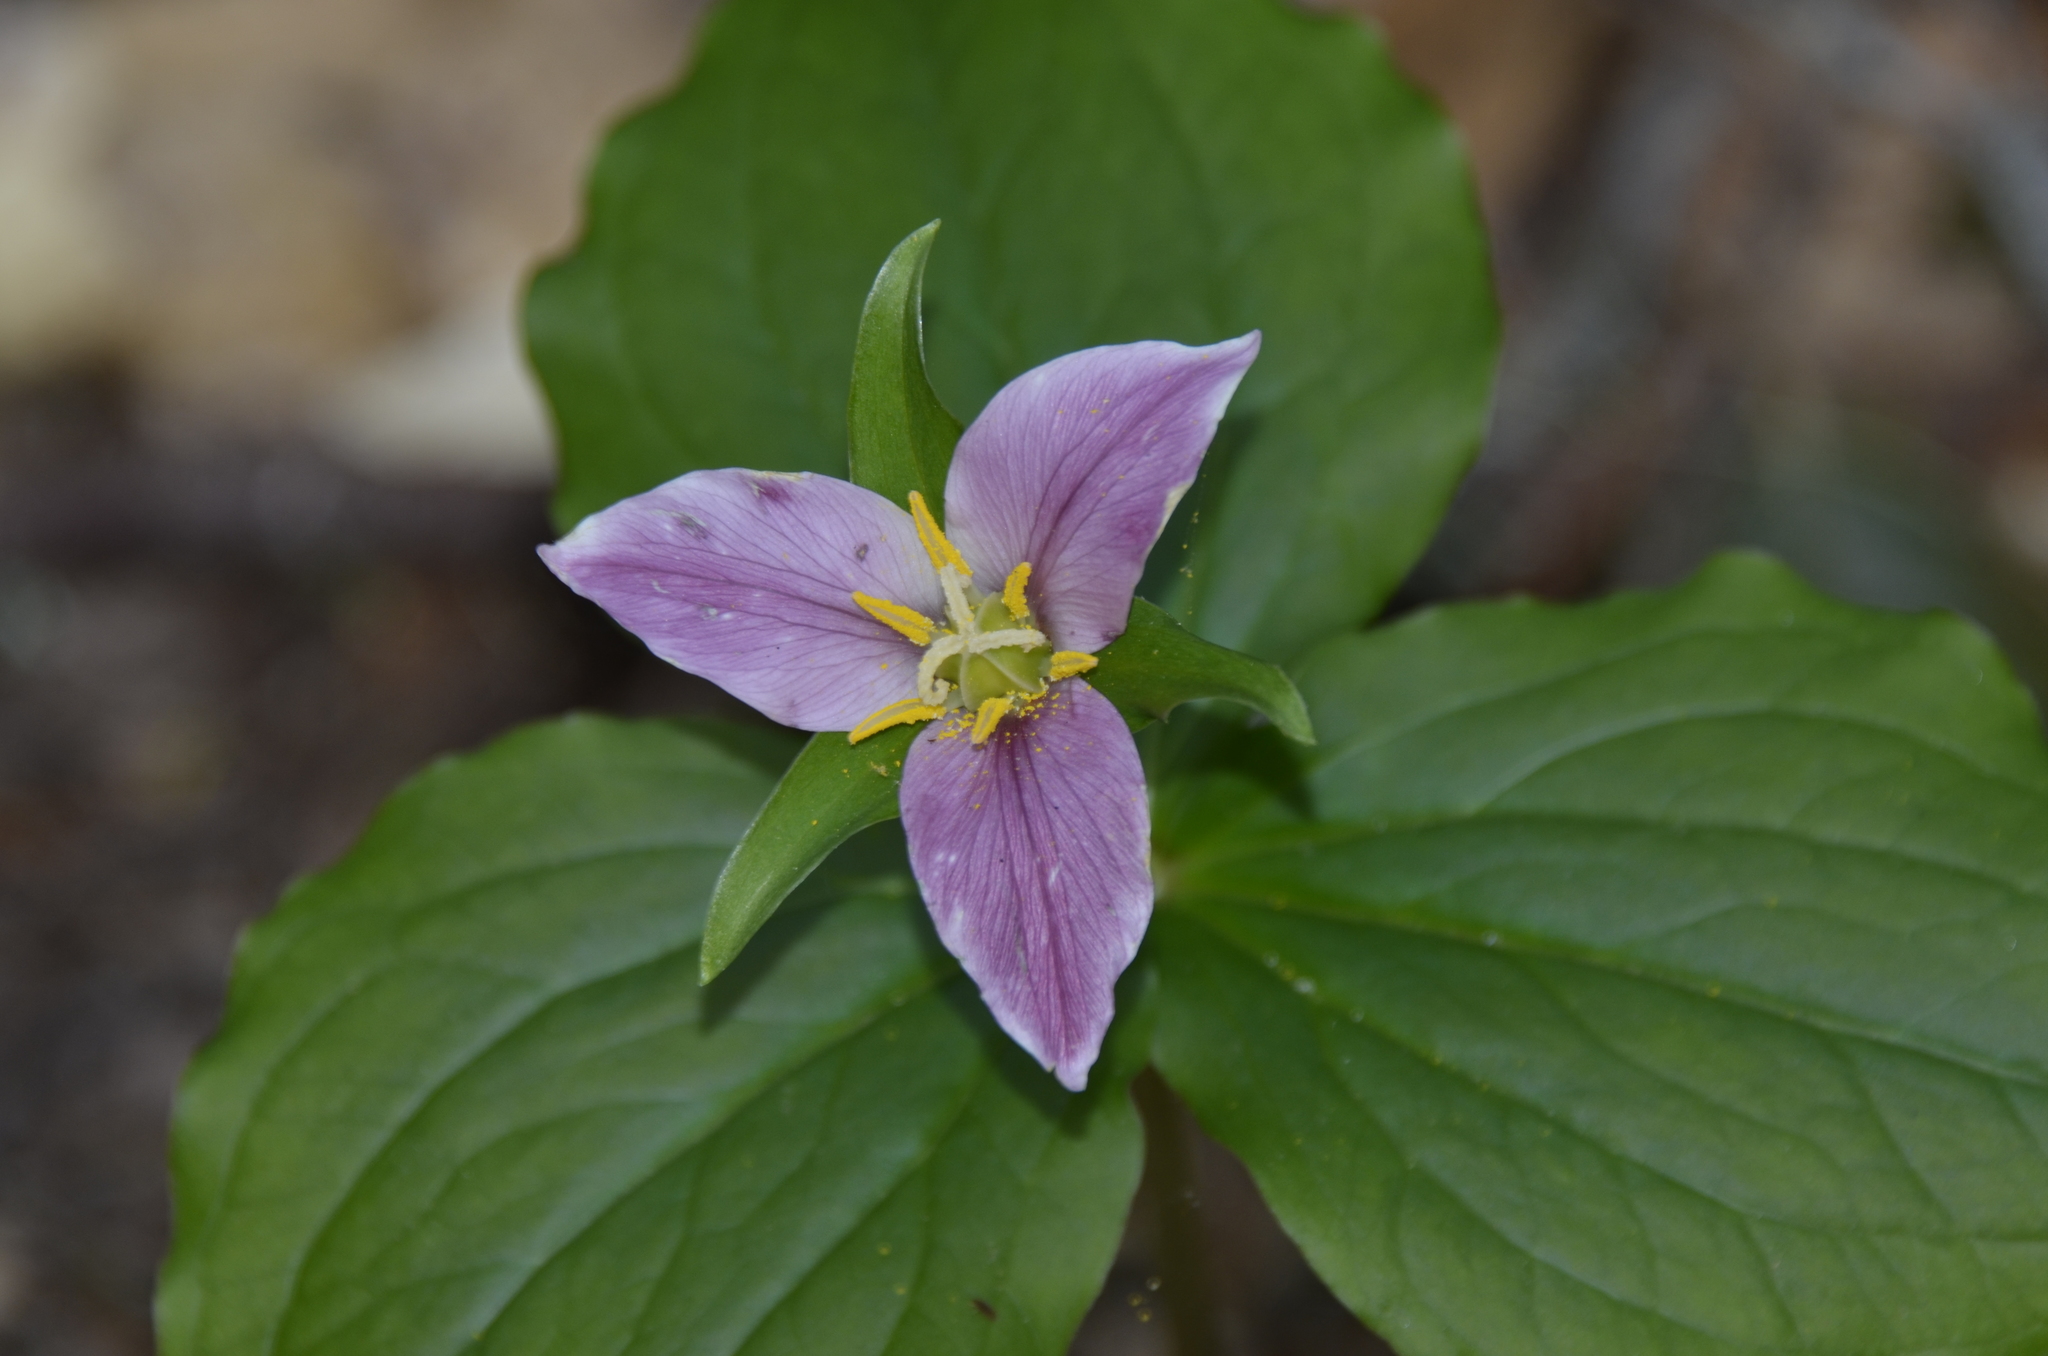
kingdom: Plantae
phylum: Tracheophyta
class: Liliopsida
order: Liliales
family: Melanthiaceae
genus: Trillium
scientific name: Trillium ovatum
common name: Pacific trillium
